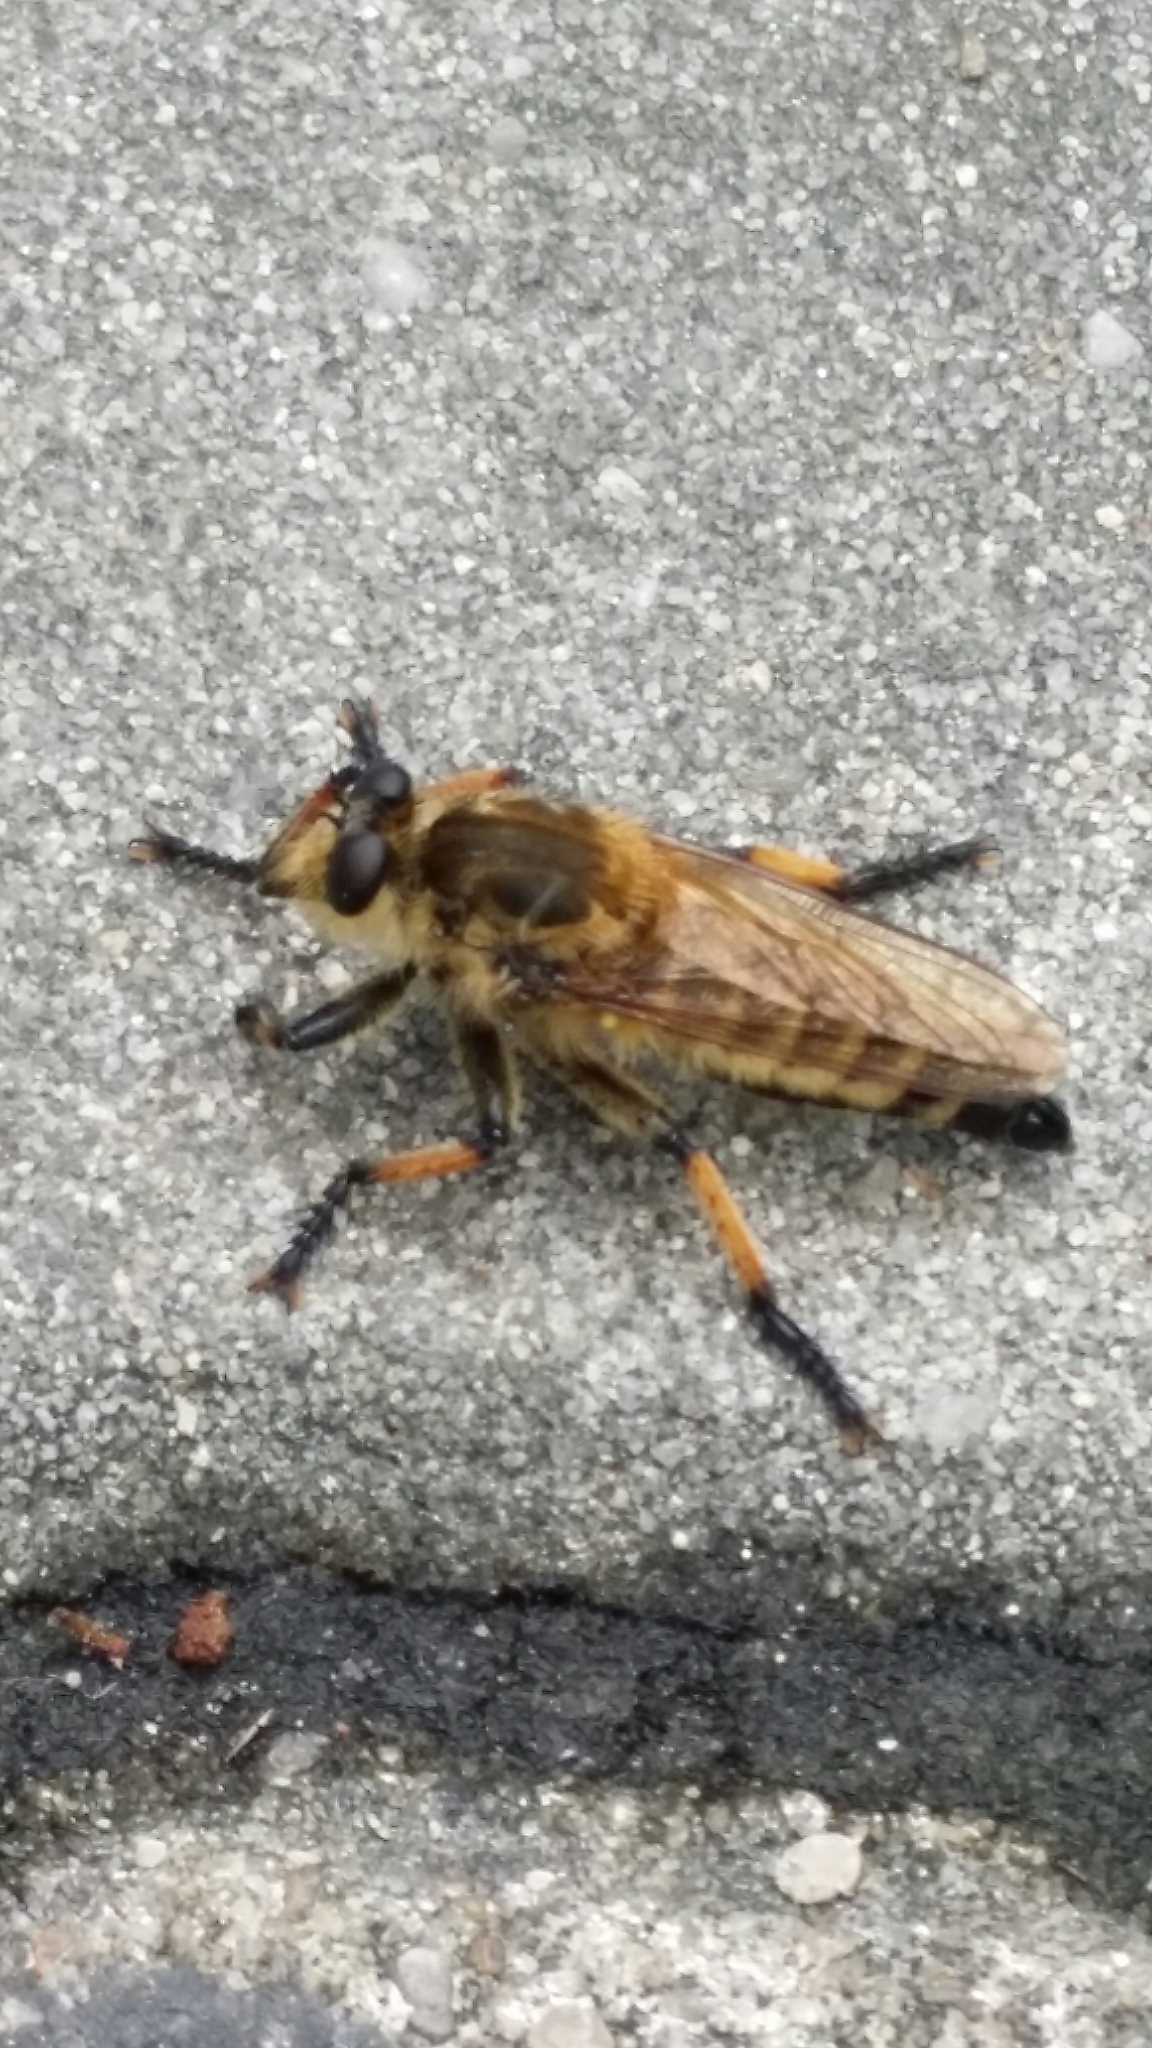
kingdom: Animalia
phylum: Arthropoda
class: Insecta
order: Diptera
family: Asilidae
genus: Promachus
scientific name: Promachus yesonicus
